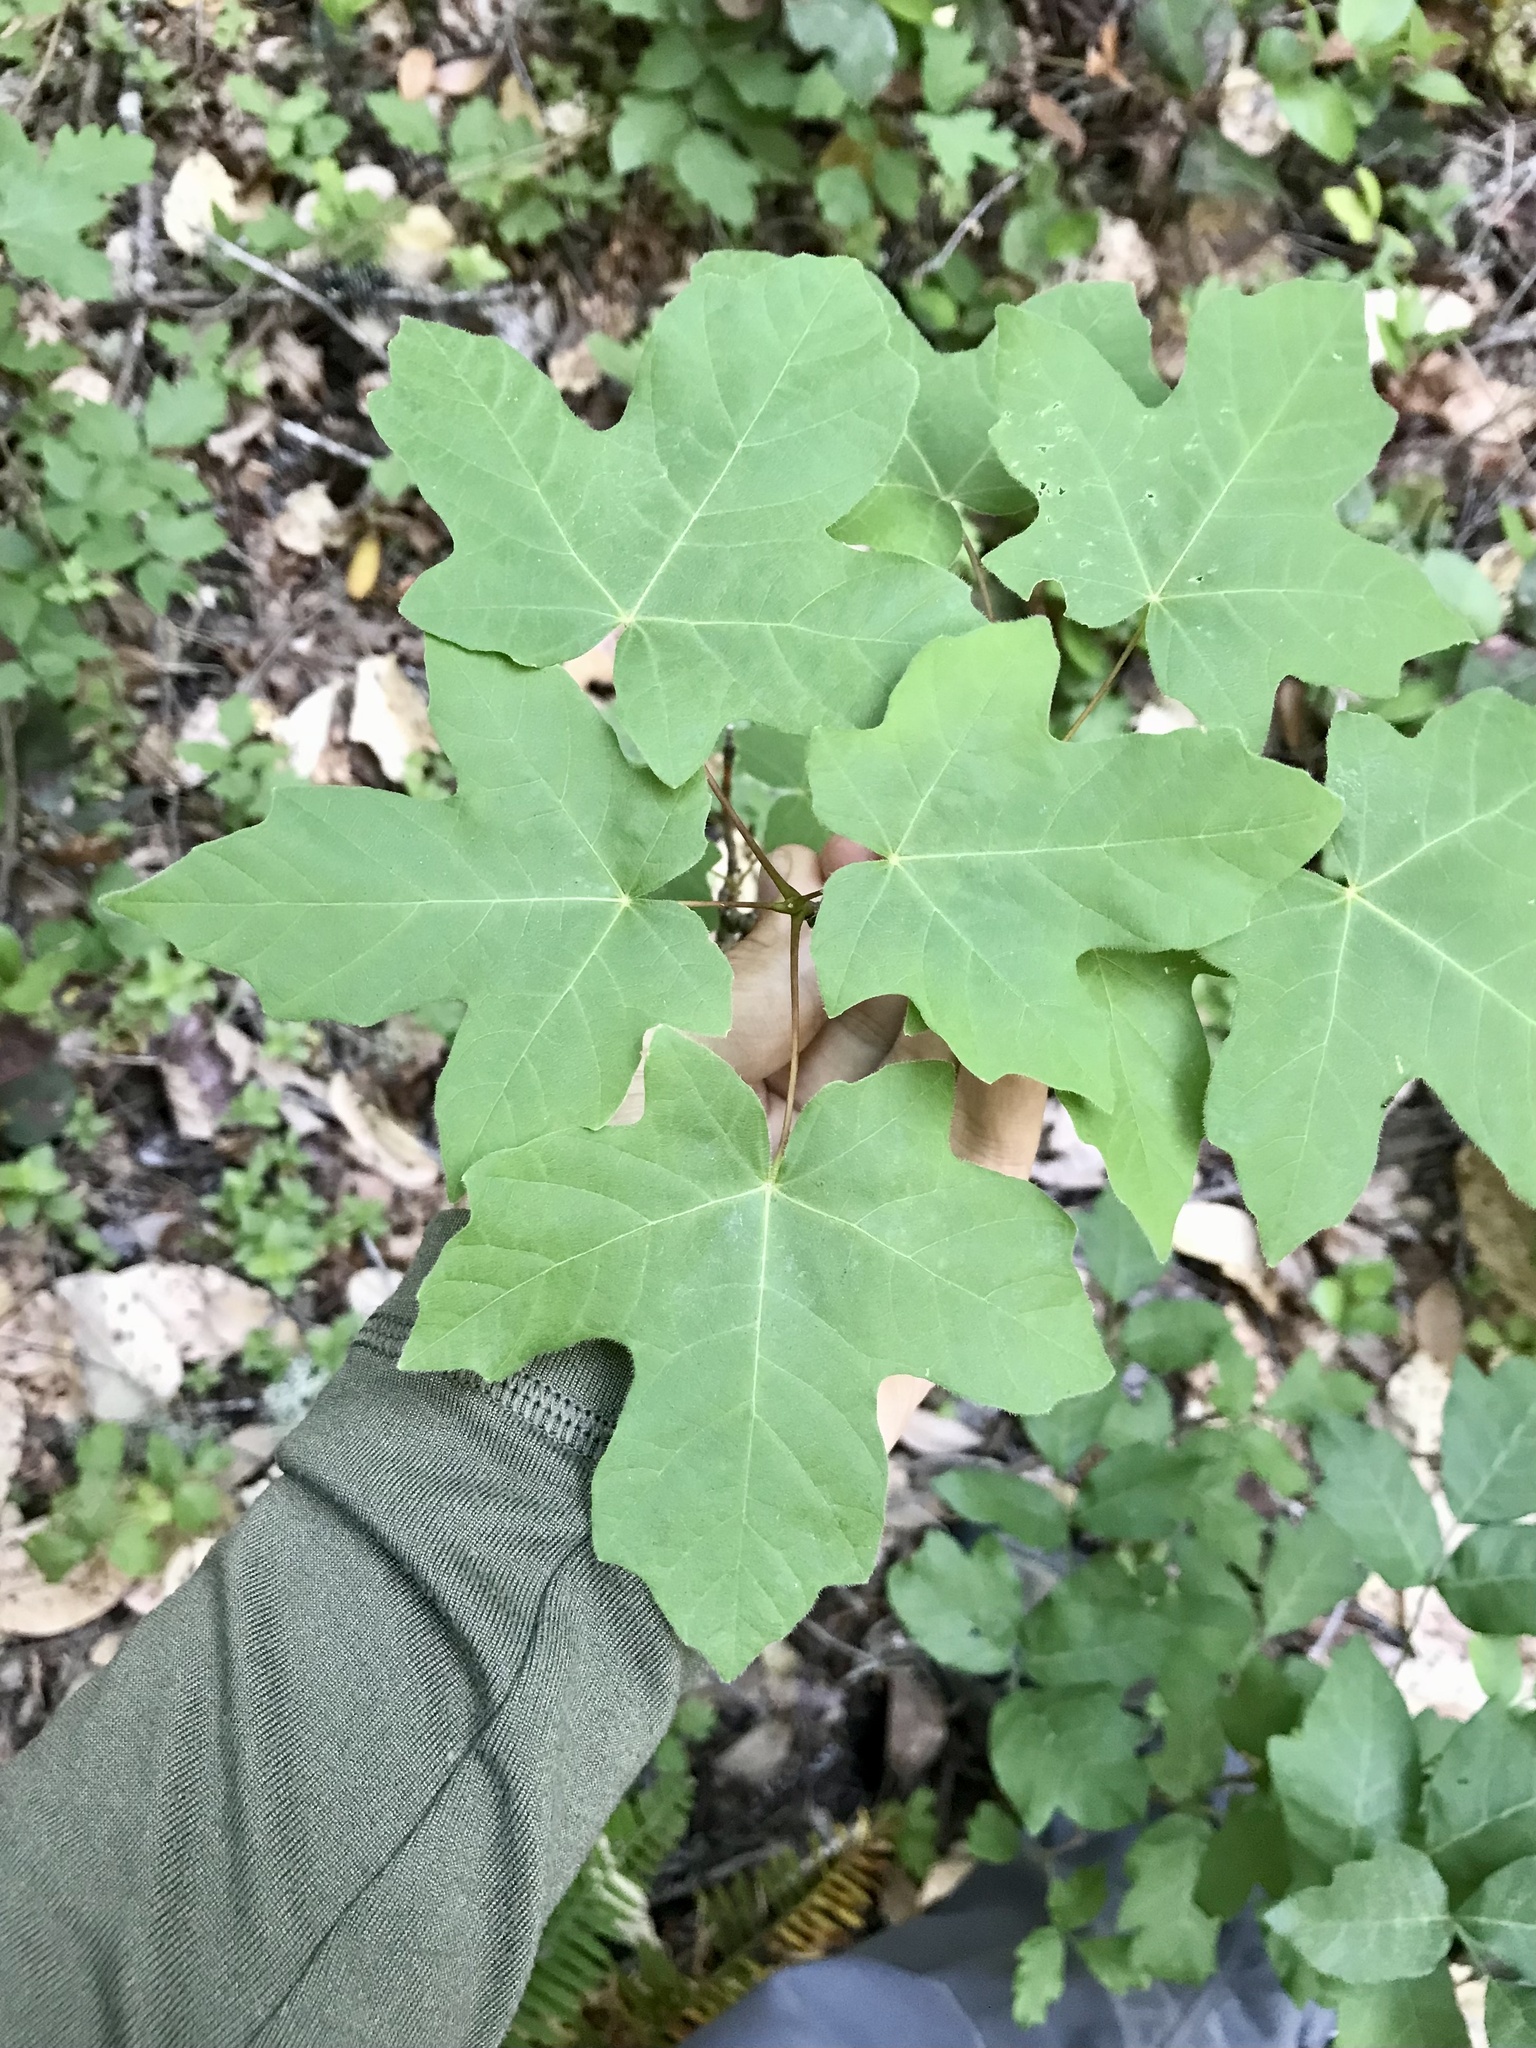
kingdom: Plantae
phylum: Tracheophyta
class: Magnoliopsida
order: Sapindales
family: Sapindaceae
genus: Acer
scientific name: Acer macrophyllum
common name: Oregon maple
